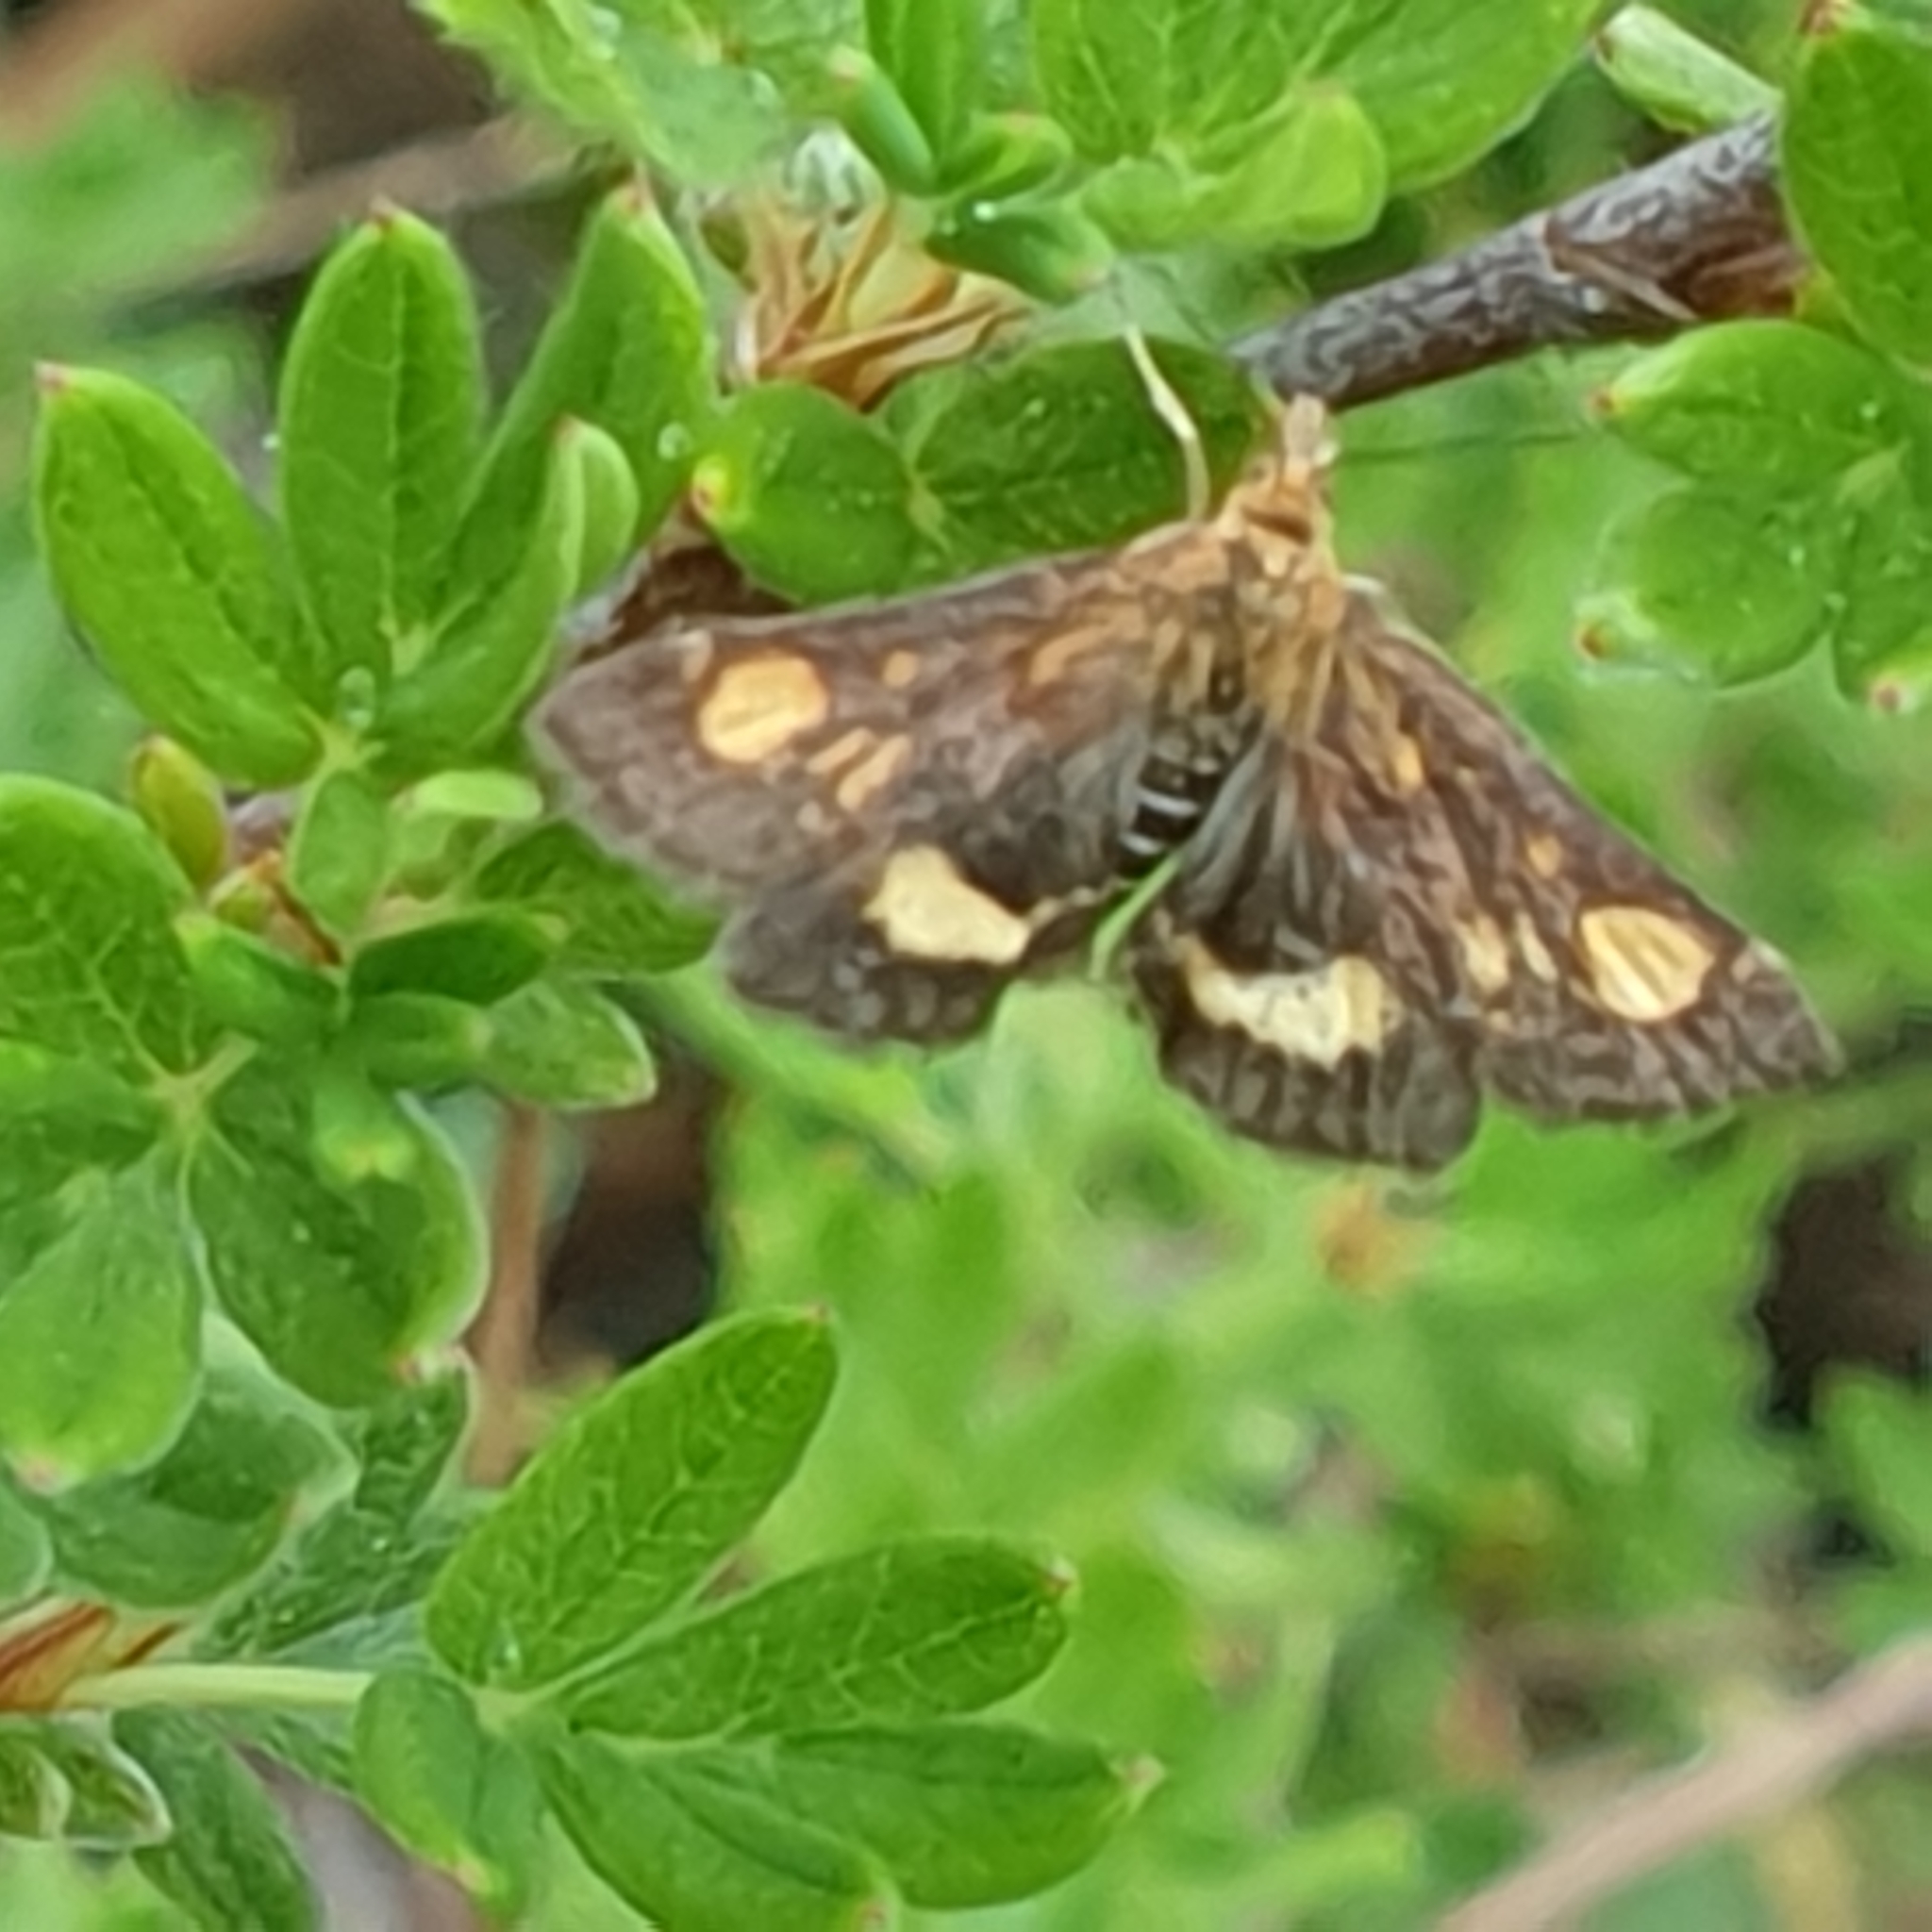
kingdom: Animalia
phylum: Arthropoda
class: Insecta
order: Lepidoptera
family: Crambidae
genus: Pyrausta
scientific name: Pyrausta aurata
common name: Small purple & gold
